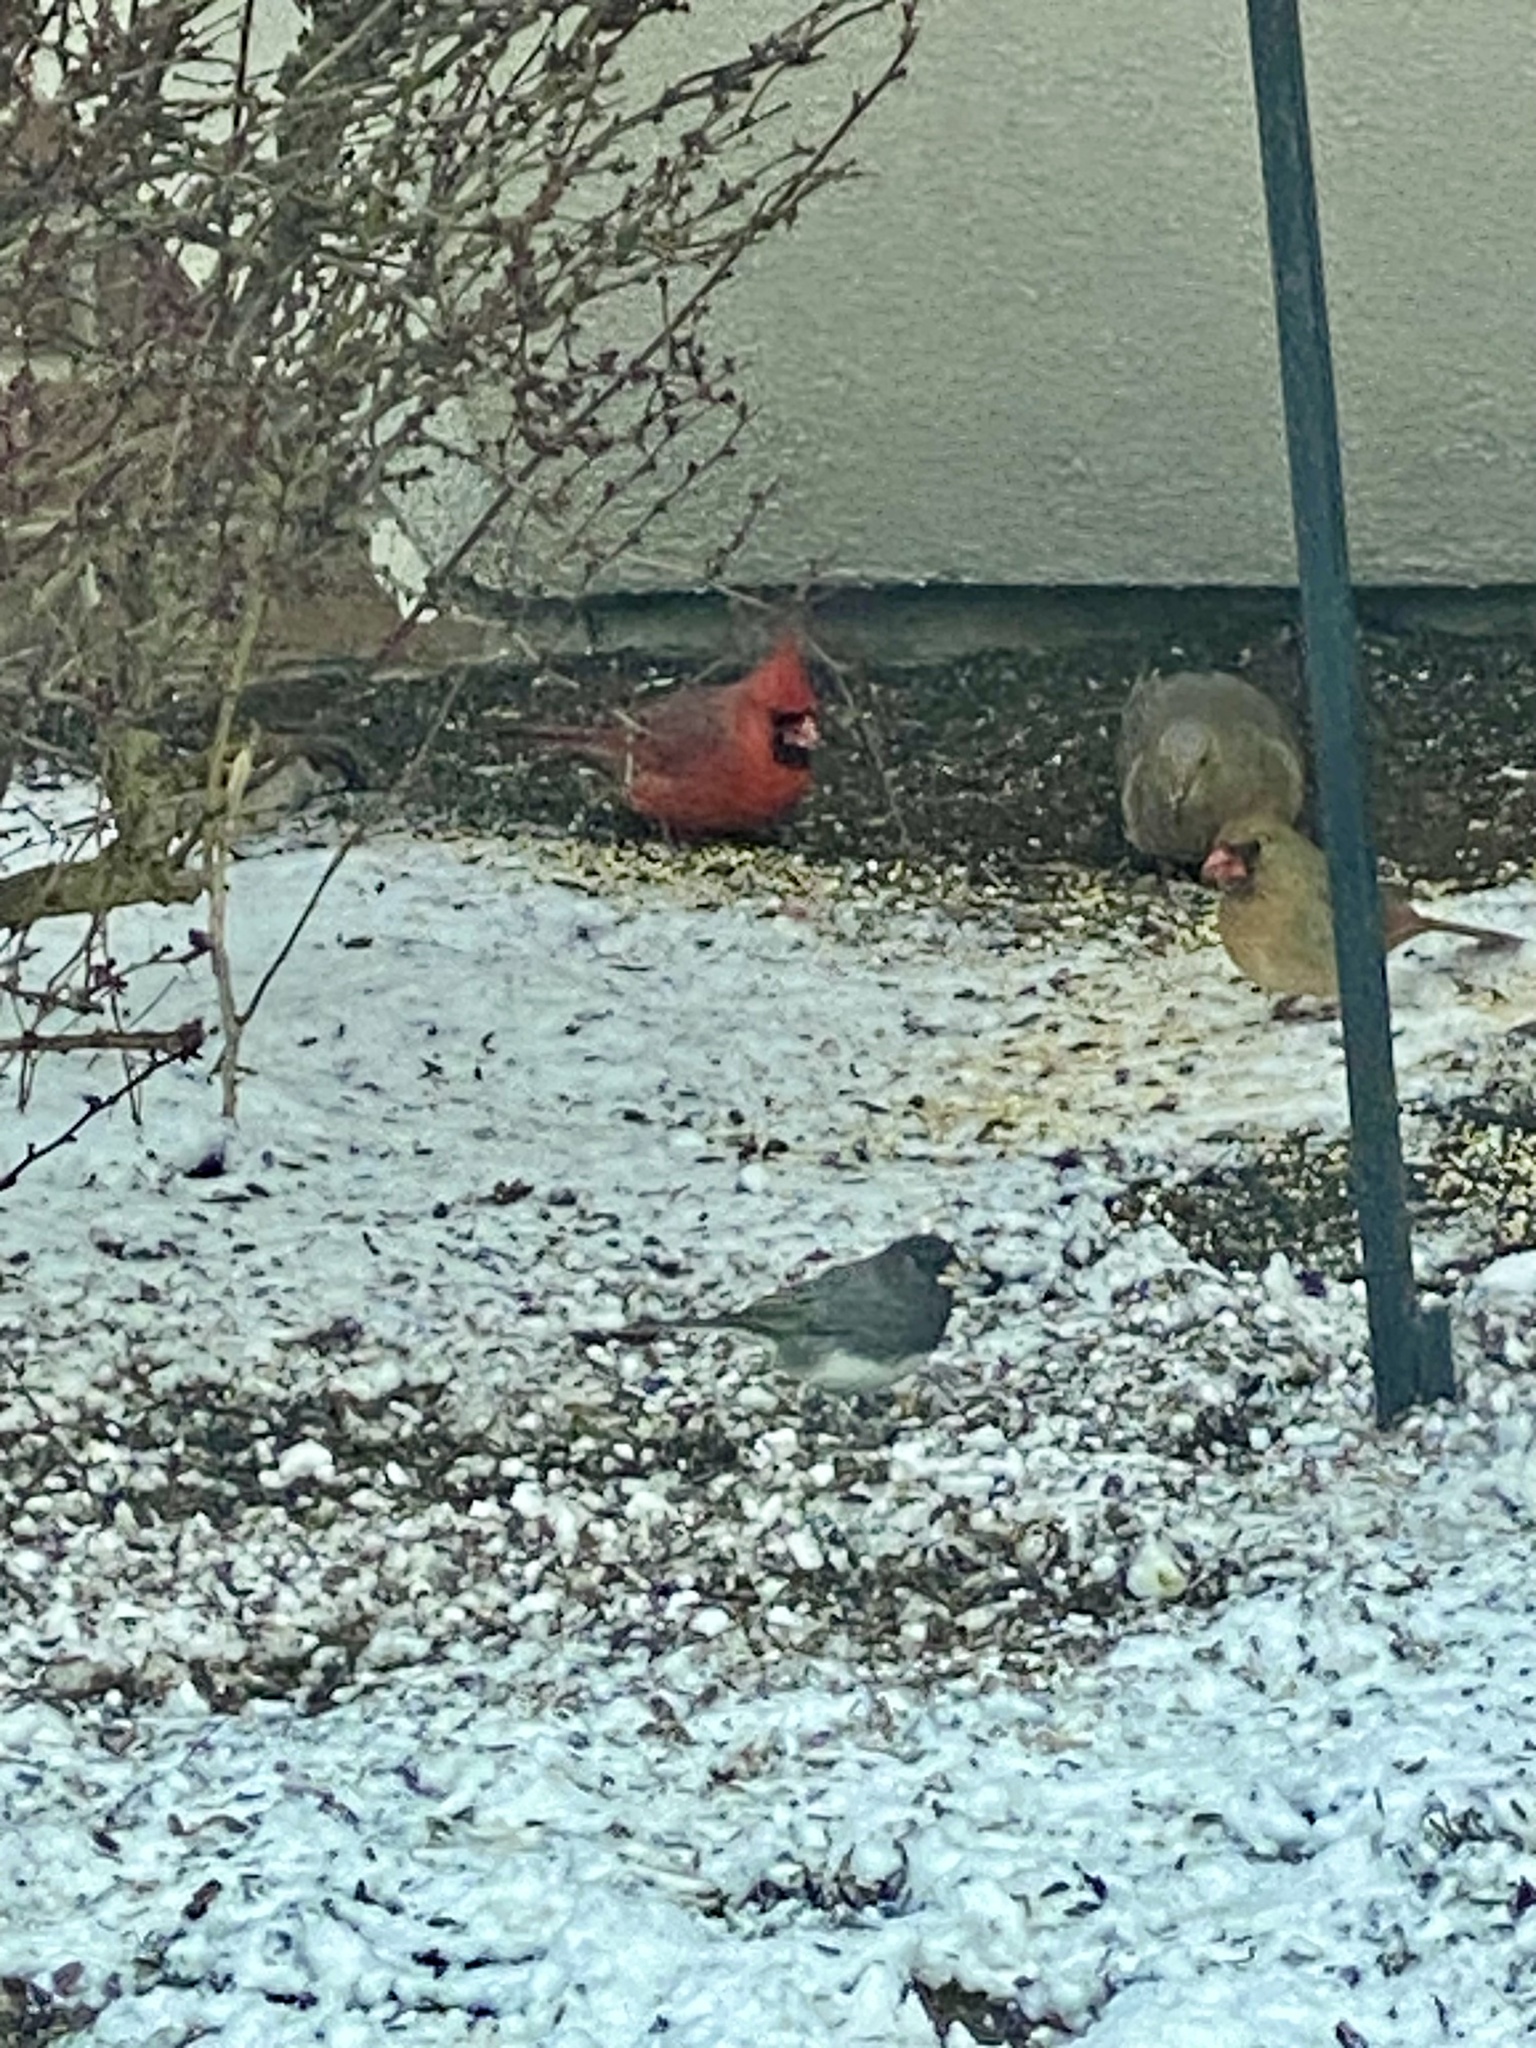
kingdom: Animalia
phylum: Chordata
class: Aves
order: Passeriformes
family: Cardinalidae
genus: Cardinalis
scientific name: Cardinalis cardinalis
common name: Northern cardinal
